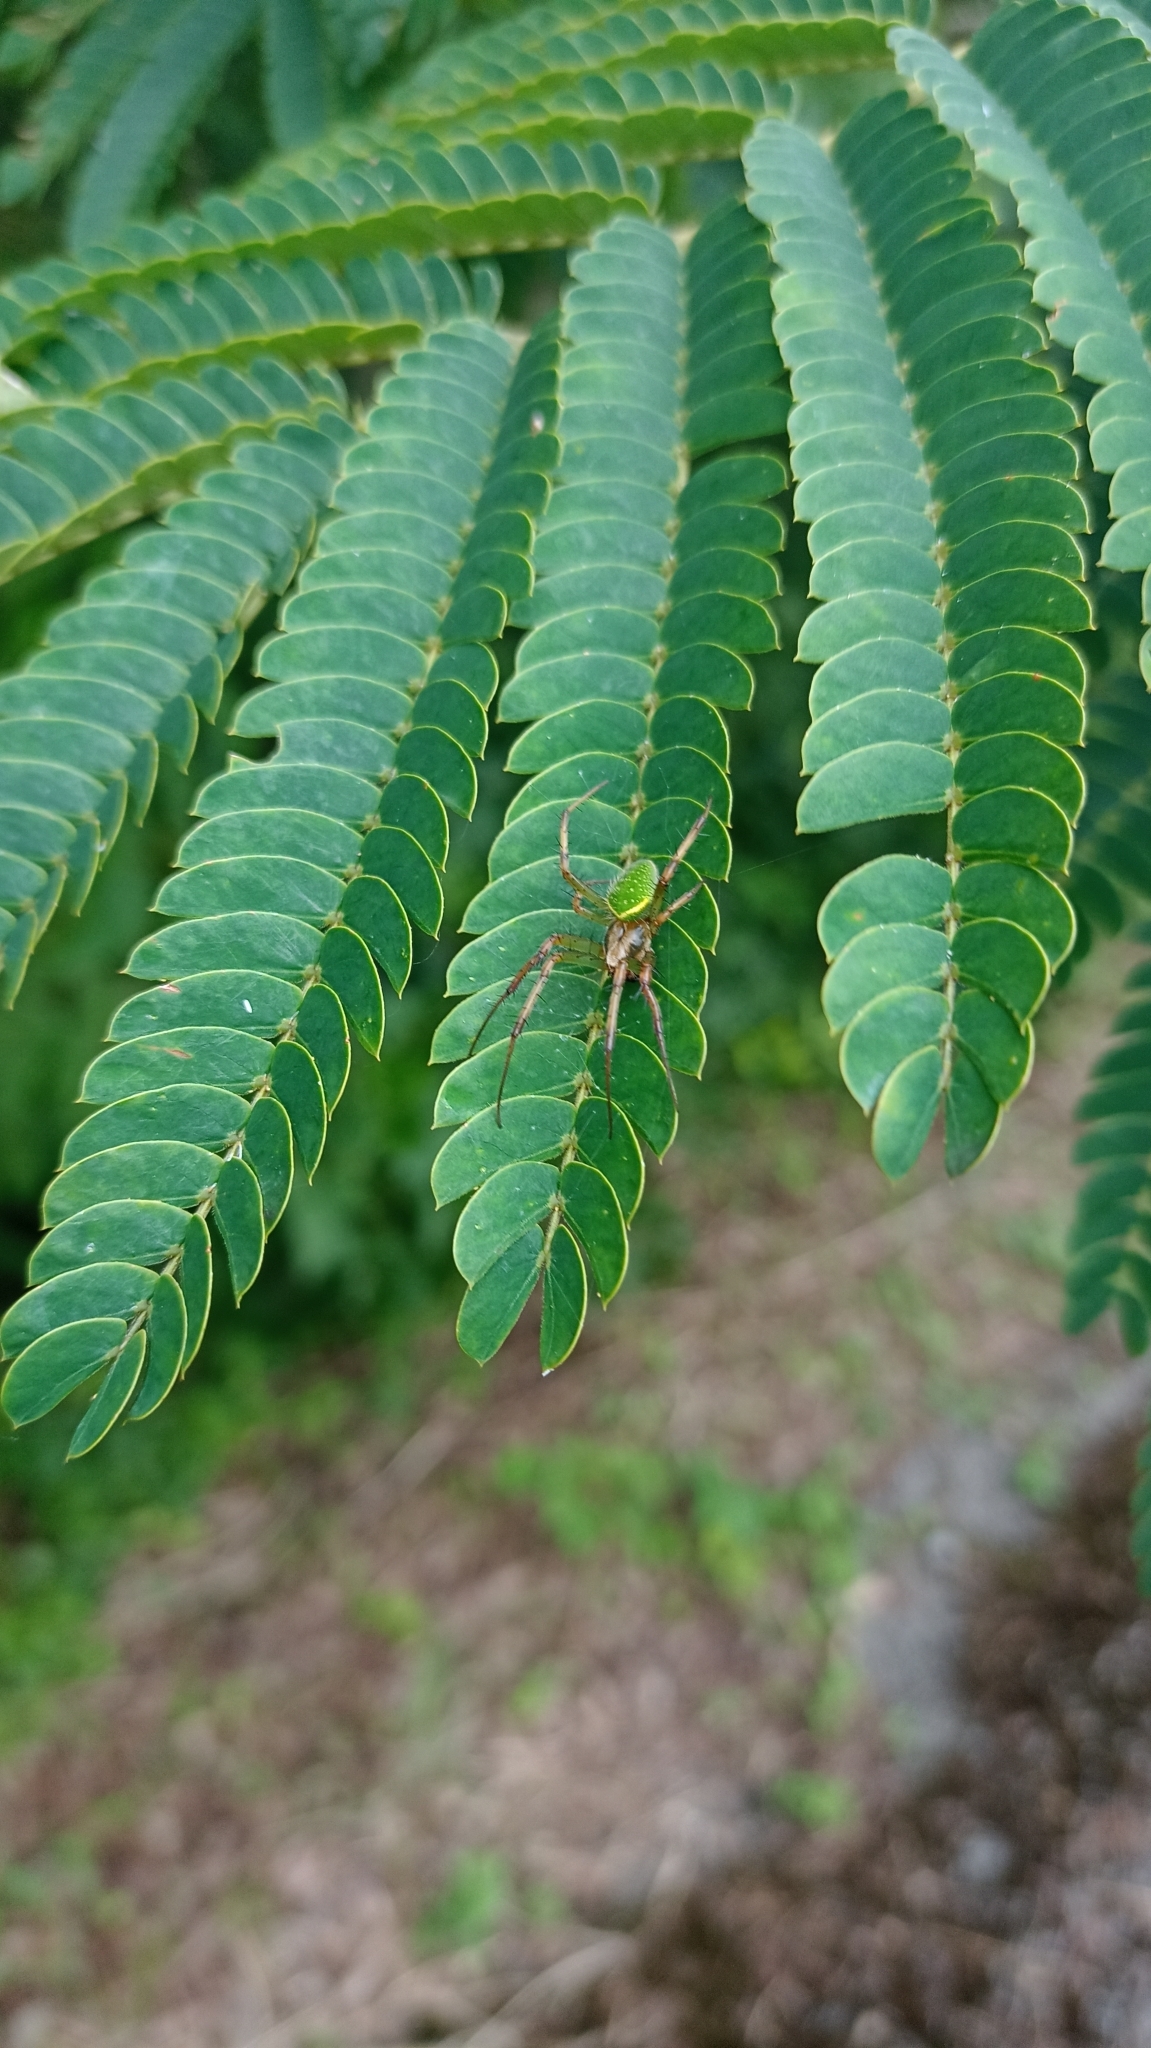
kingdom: Animalia
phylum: Arthropoda
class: Arachnida
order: Araneae
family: Araneidae
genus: Neoscona
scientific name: Neoscona scylloides
